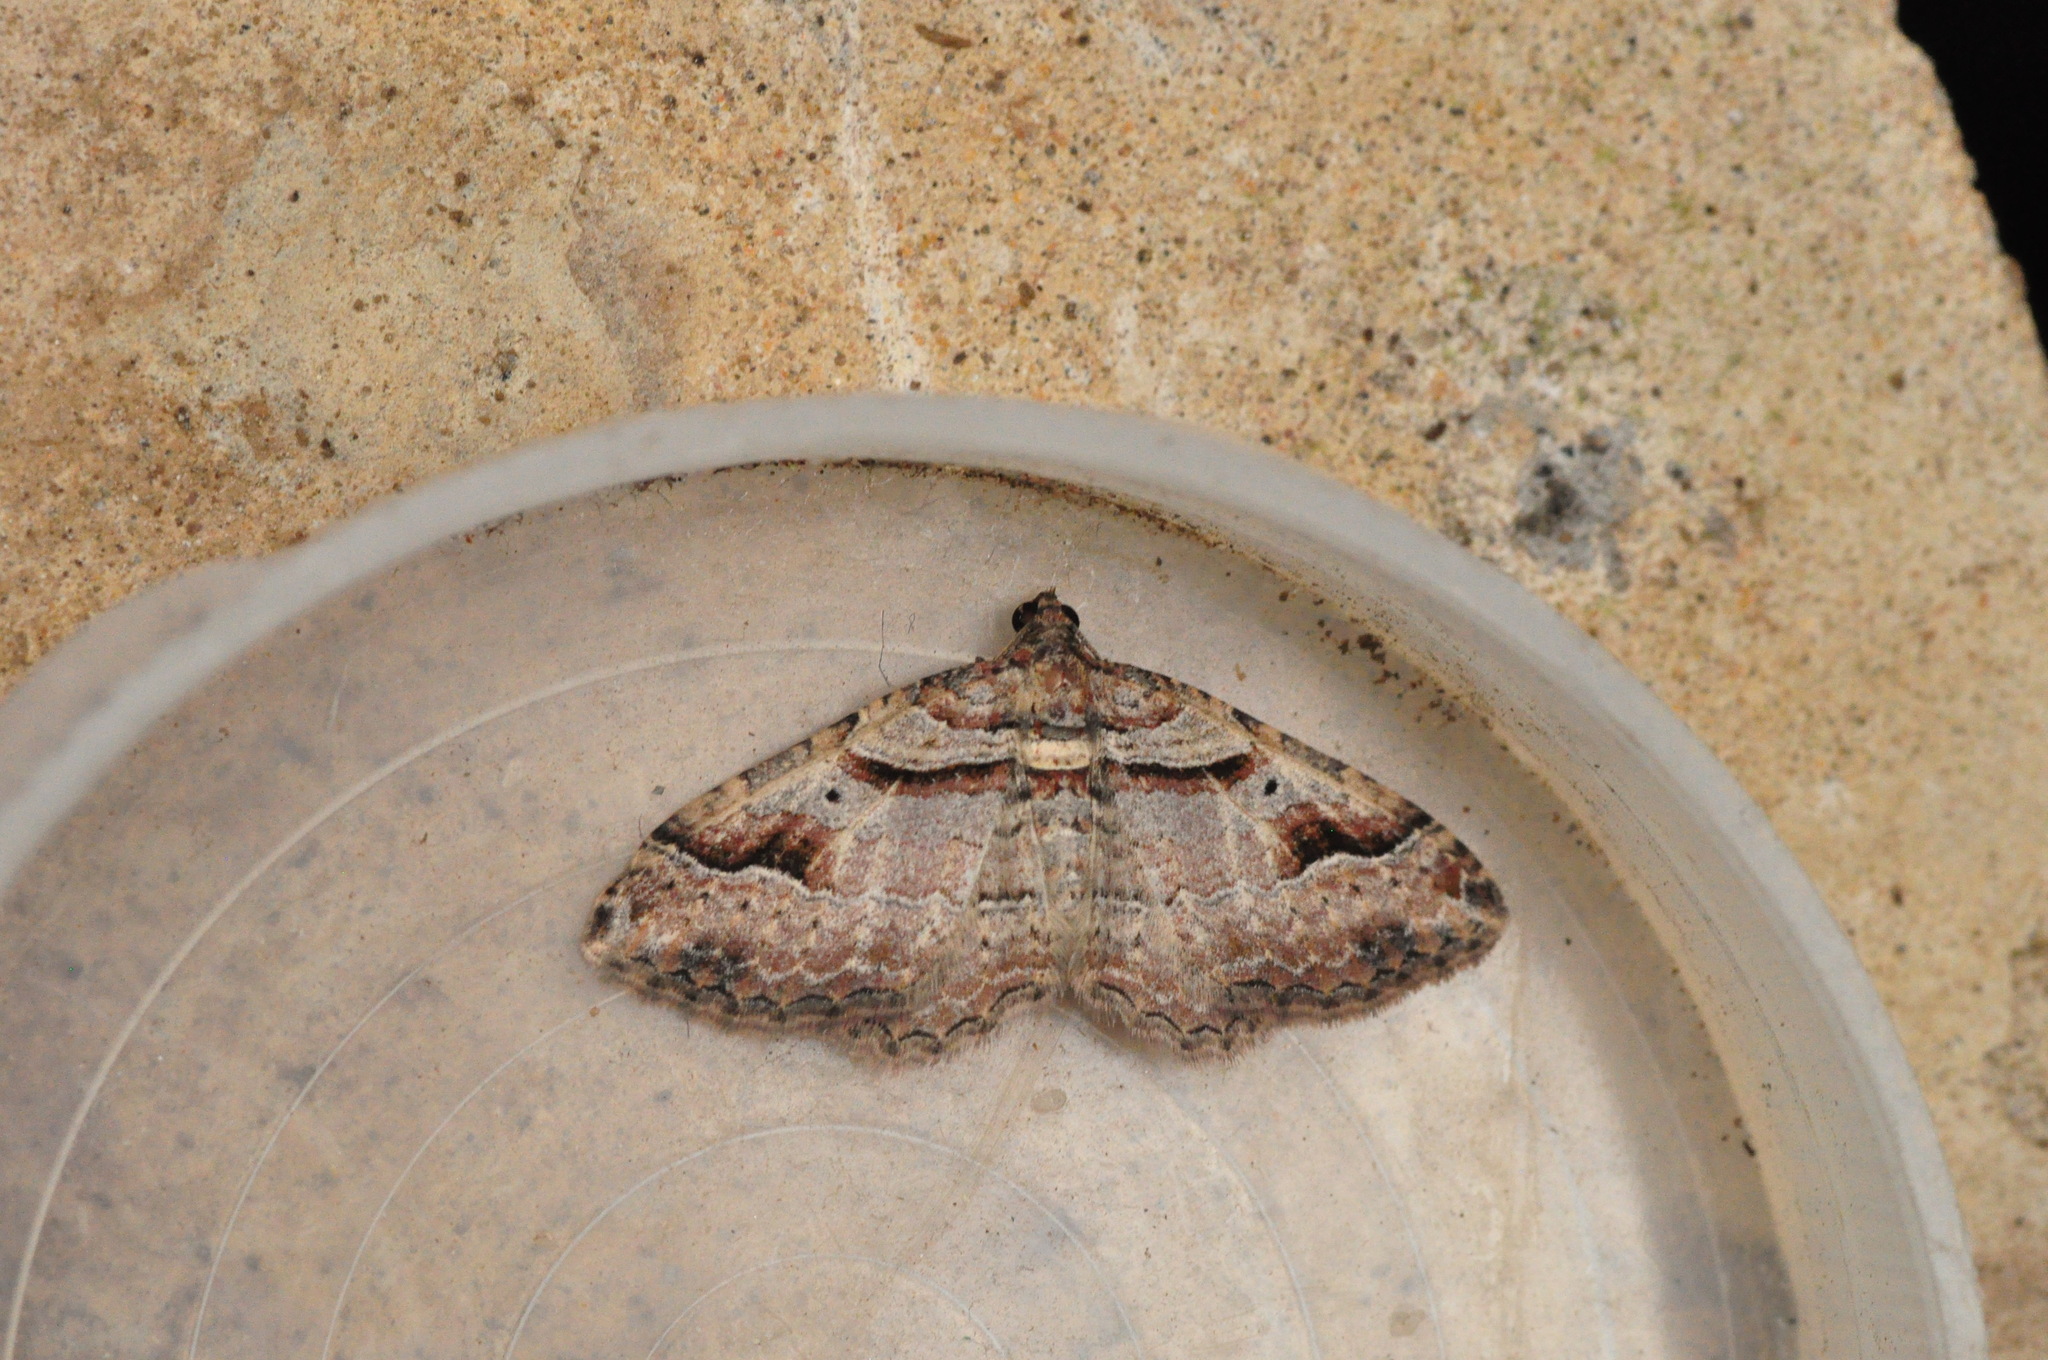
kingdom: Animalia
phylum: Arthropoda
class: Insecta
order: Lepidoptera
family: Geometridae
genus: Costaconvexa
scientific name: Costaconvexa centrostrigaria
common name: Bent-line carpet
